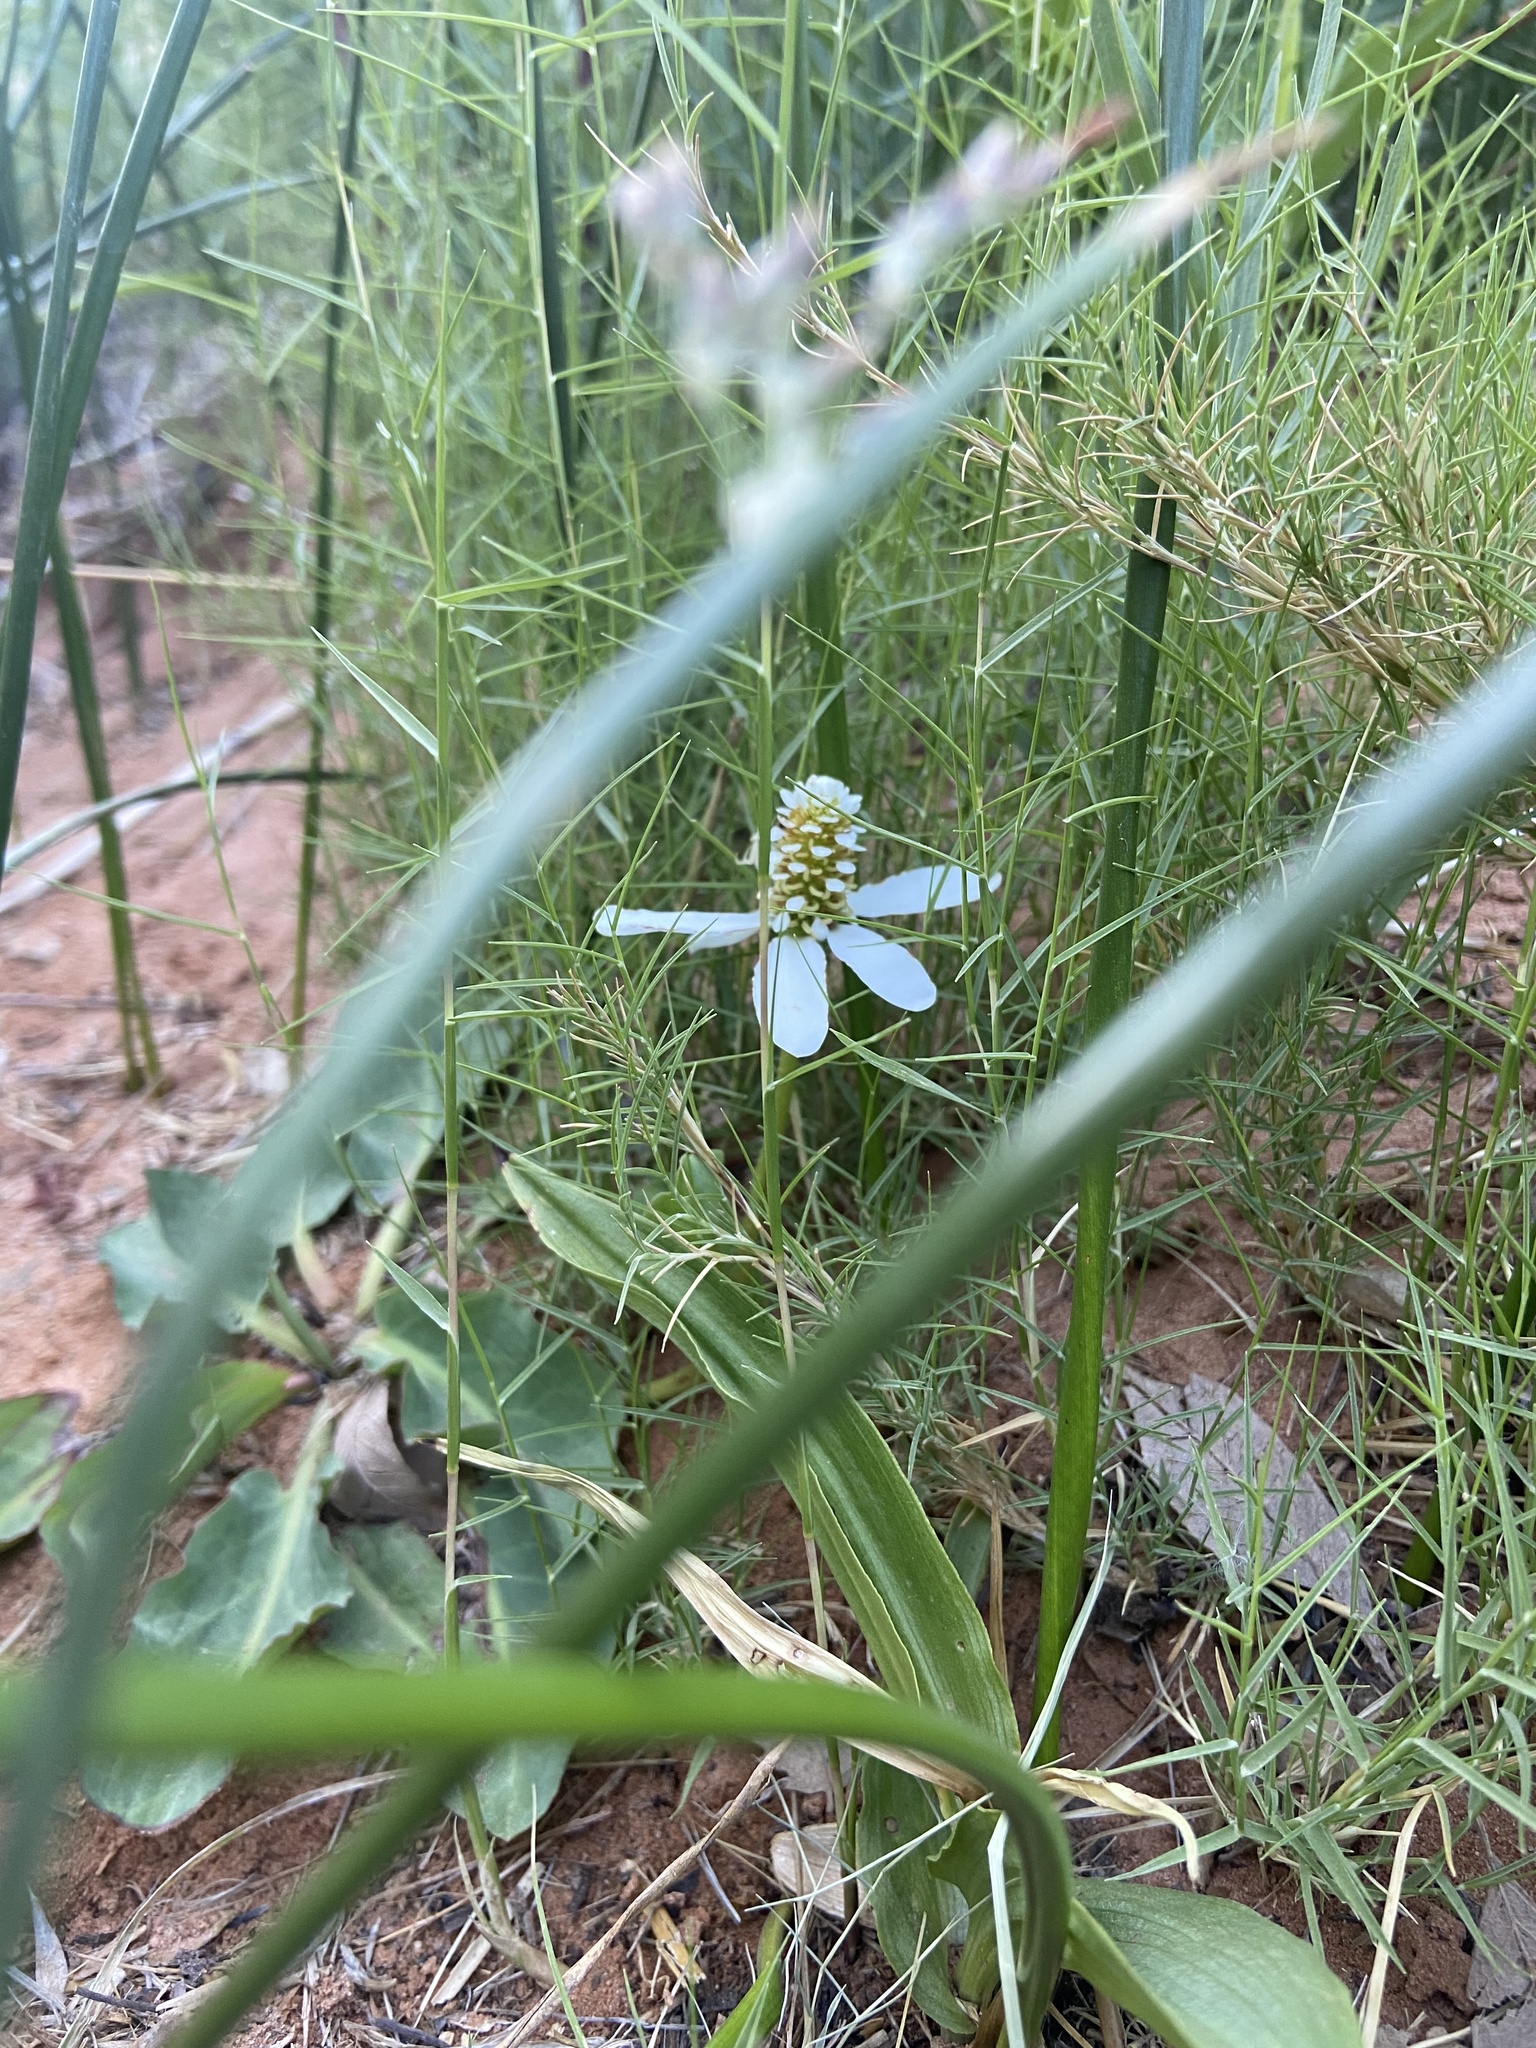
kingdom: Plantae
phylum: Tracheophyta
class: Magnoliopsida
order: Piperales
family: Saururaceae
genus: Anemopsis
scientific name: Anemopsis californica
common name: Apache-beads
